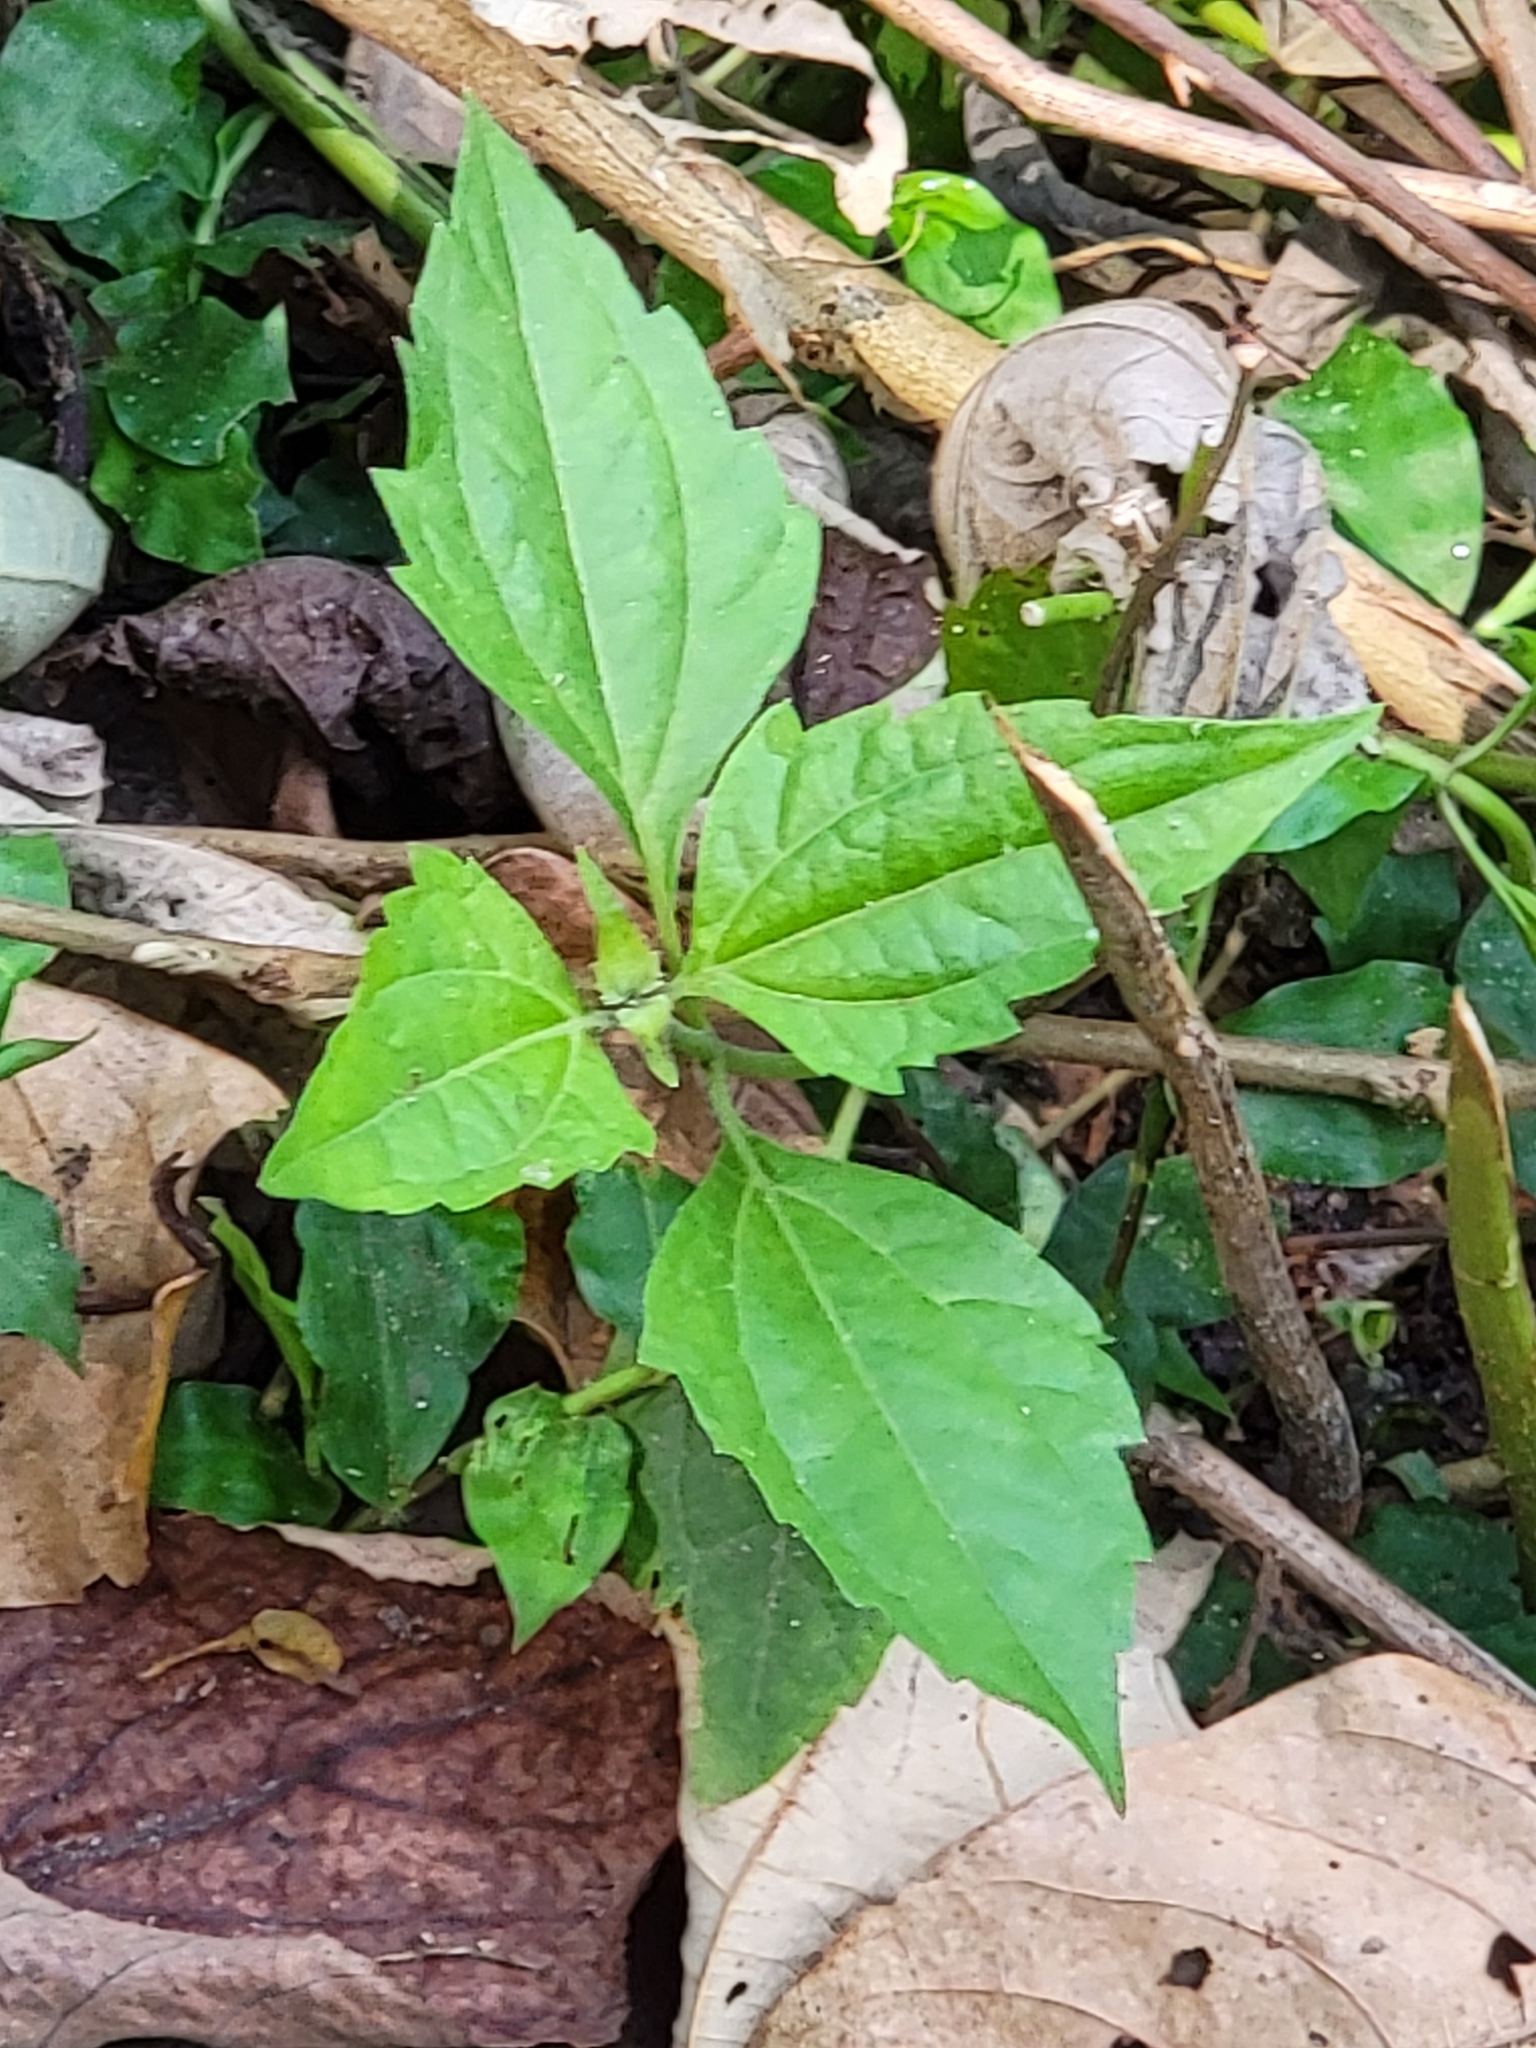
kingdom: Plantae
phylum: Tracheophyta
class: Magnoliopsida
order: Asterales
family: Asteraceae
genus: Chromolaena
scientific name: Chromolaena odorata
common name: Siamweed
